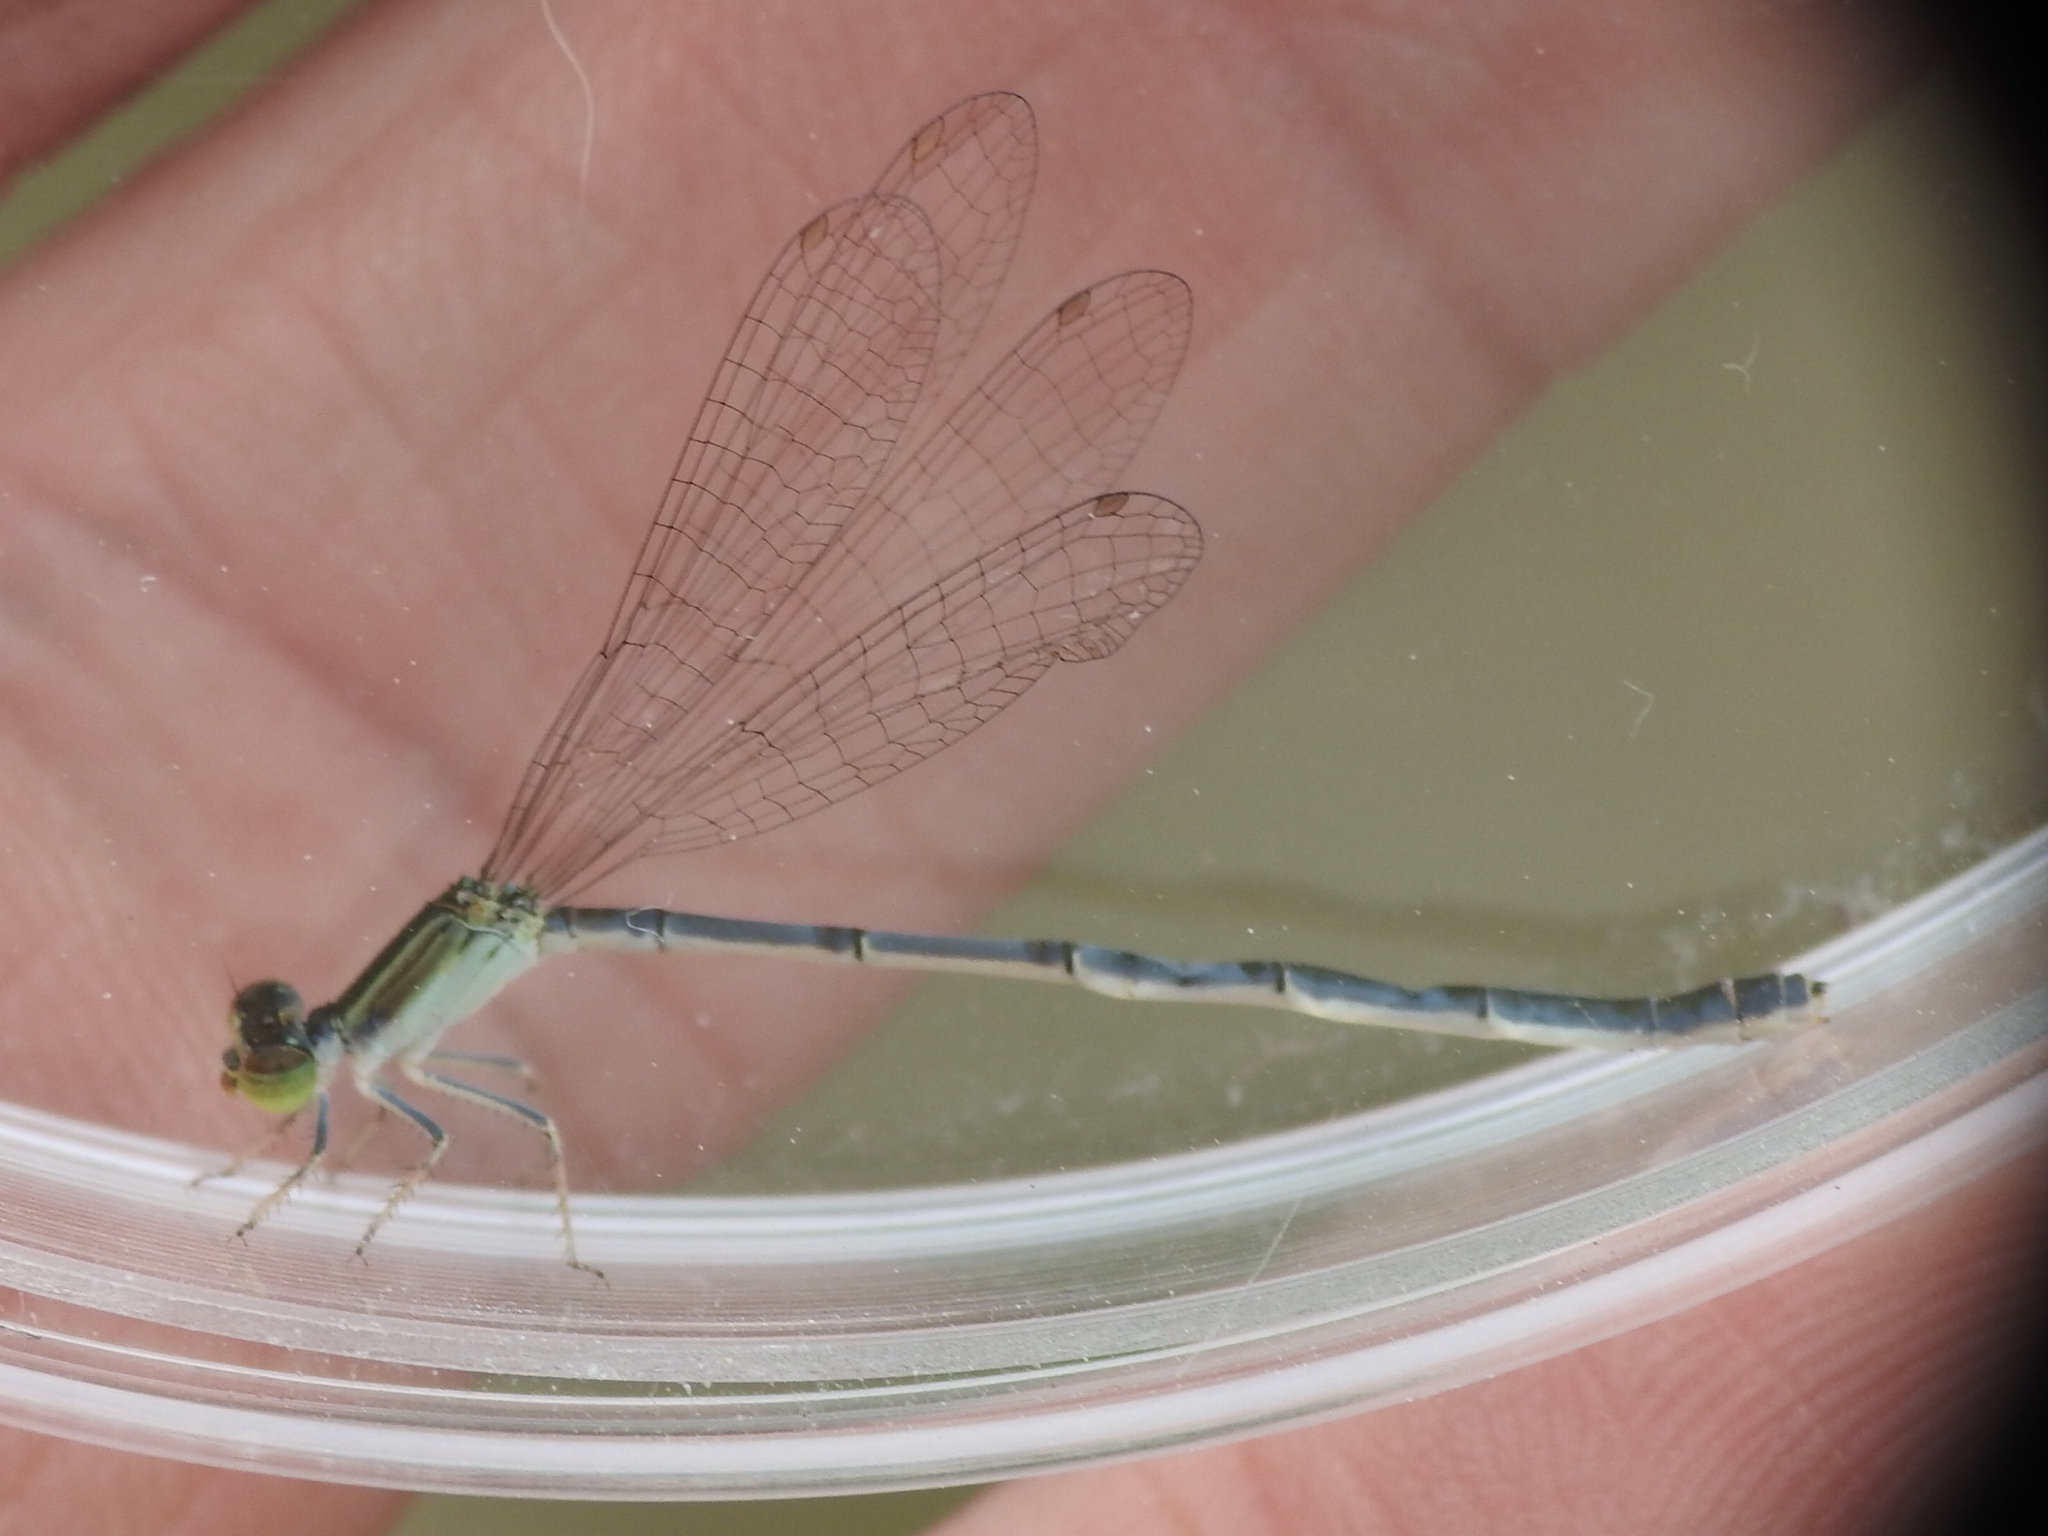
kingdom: Animalia
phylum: Arthropoda
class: Insecta
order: Odonata
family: Coenagrionidae
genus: Ischnura
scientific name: Ischnura hastata
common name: Citrine forktail
